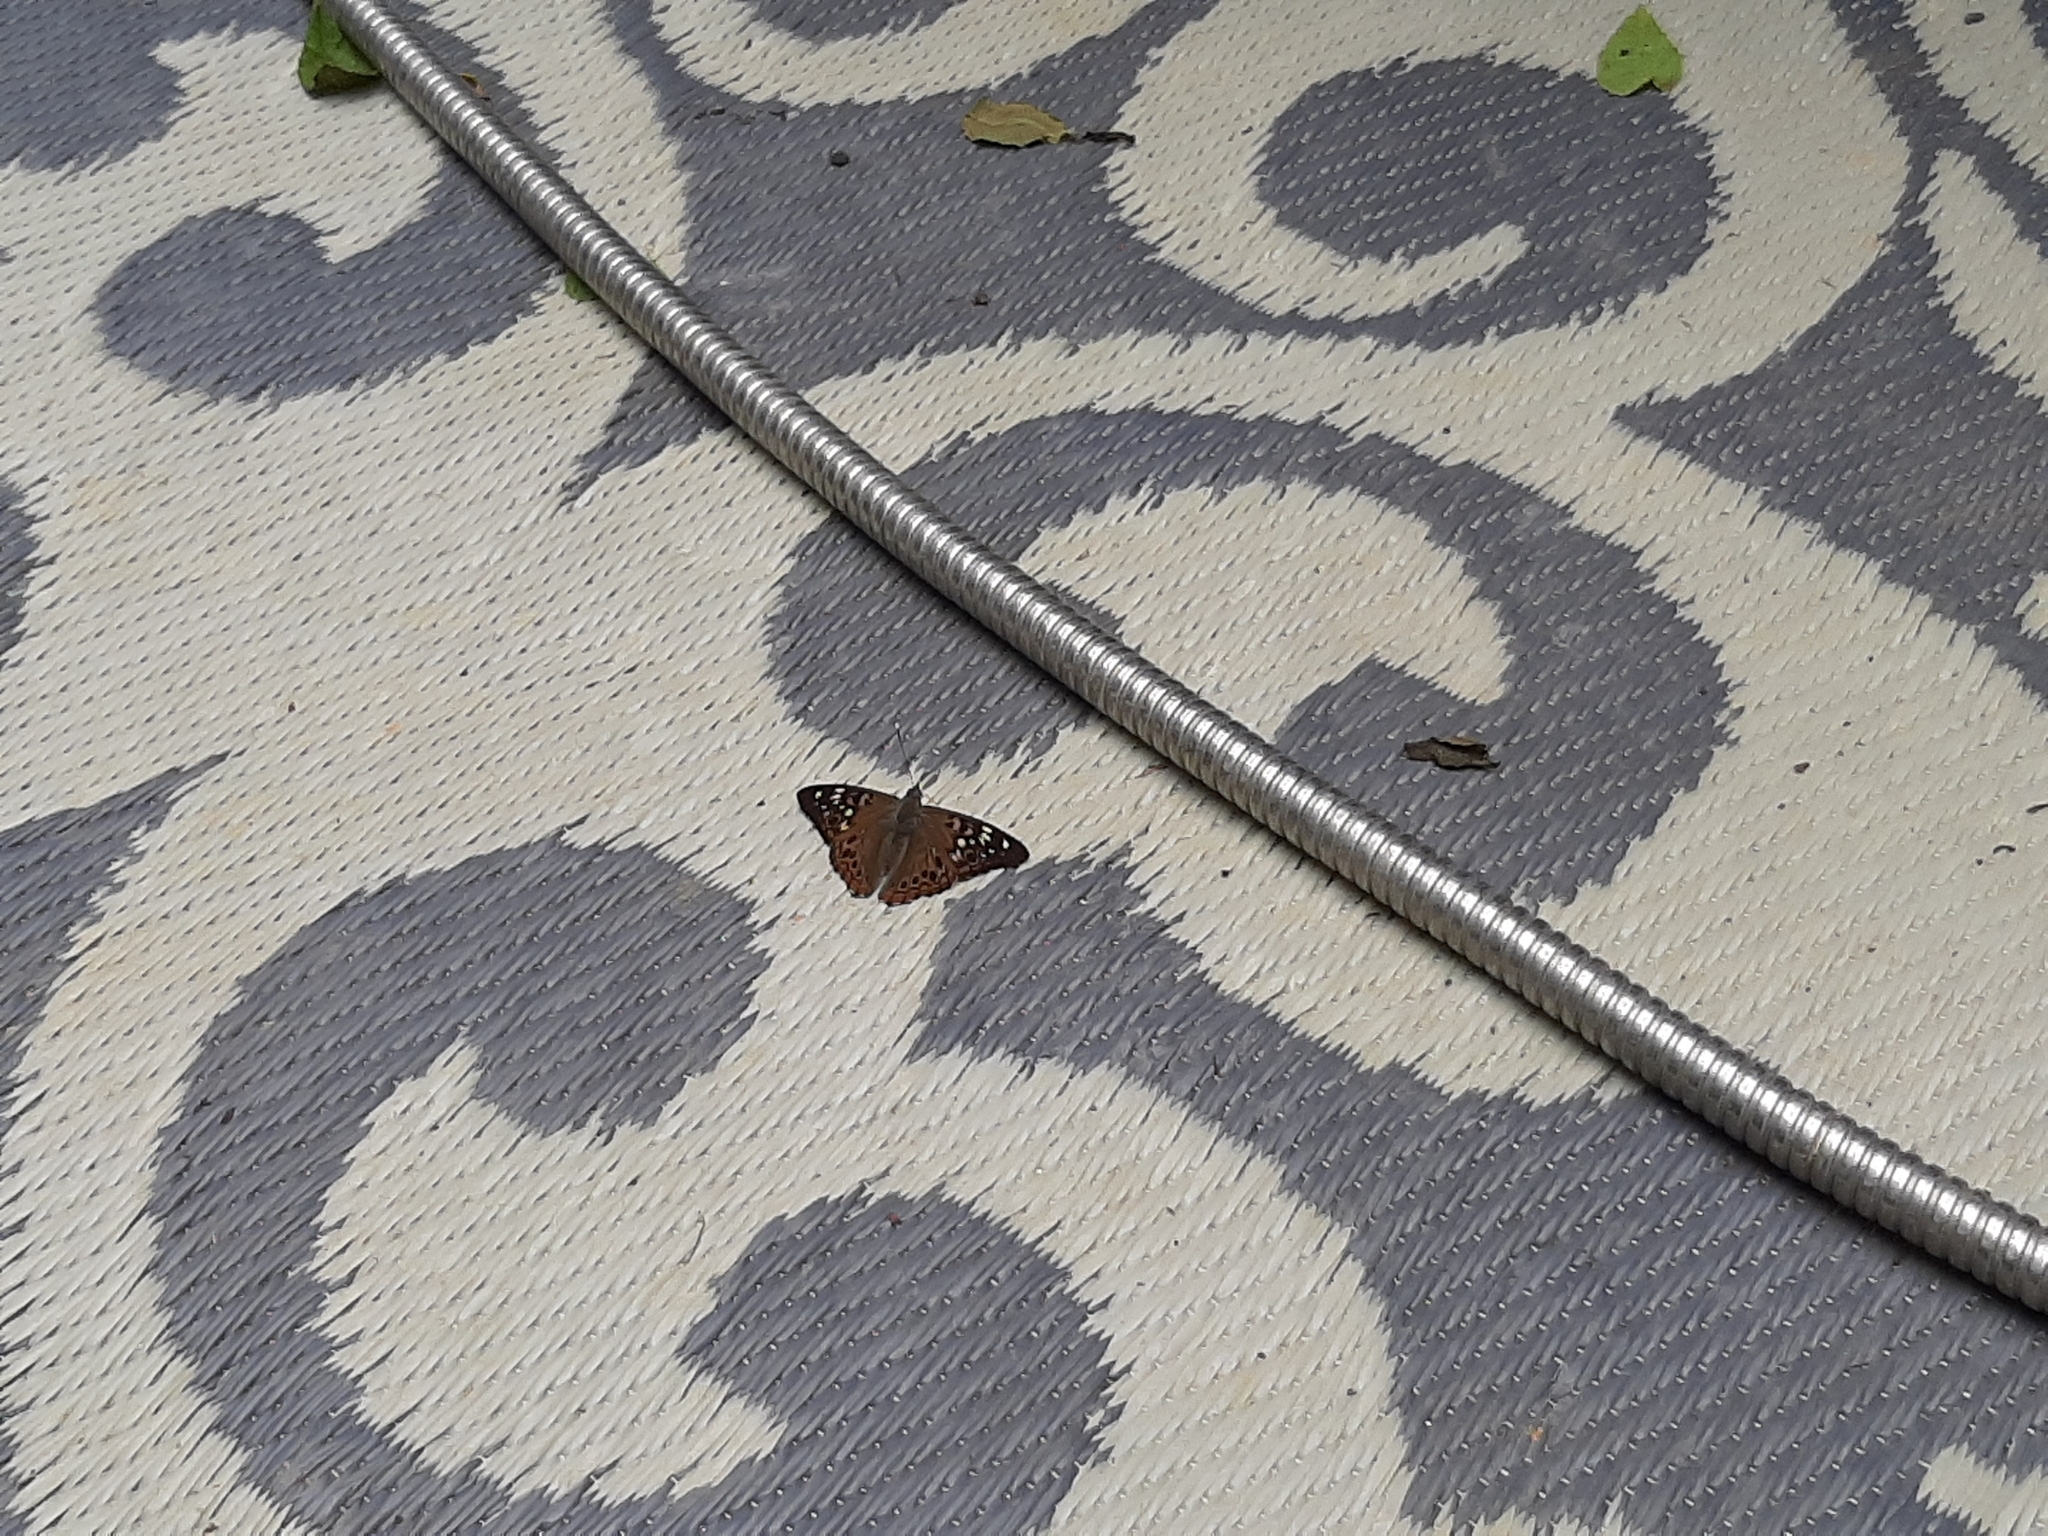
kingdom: Animalia
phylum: Arthropoda
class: Insecta
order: Lepidoptera
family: Nymphalidae
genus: Asterocampa
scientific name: Asterocampa celtis
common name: Hackberry emperor
